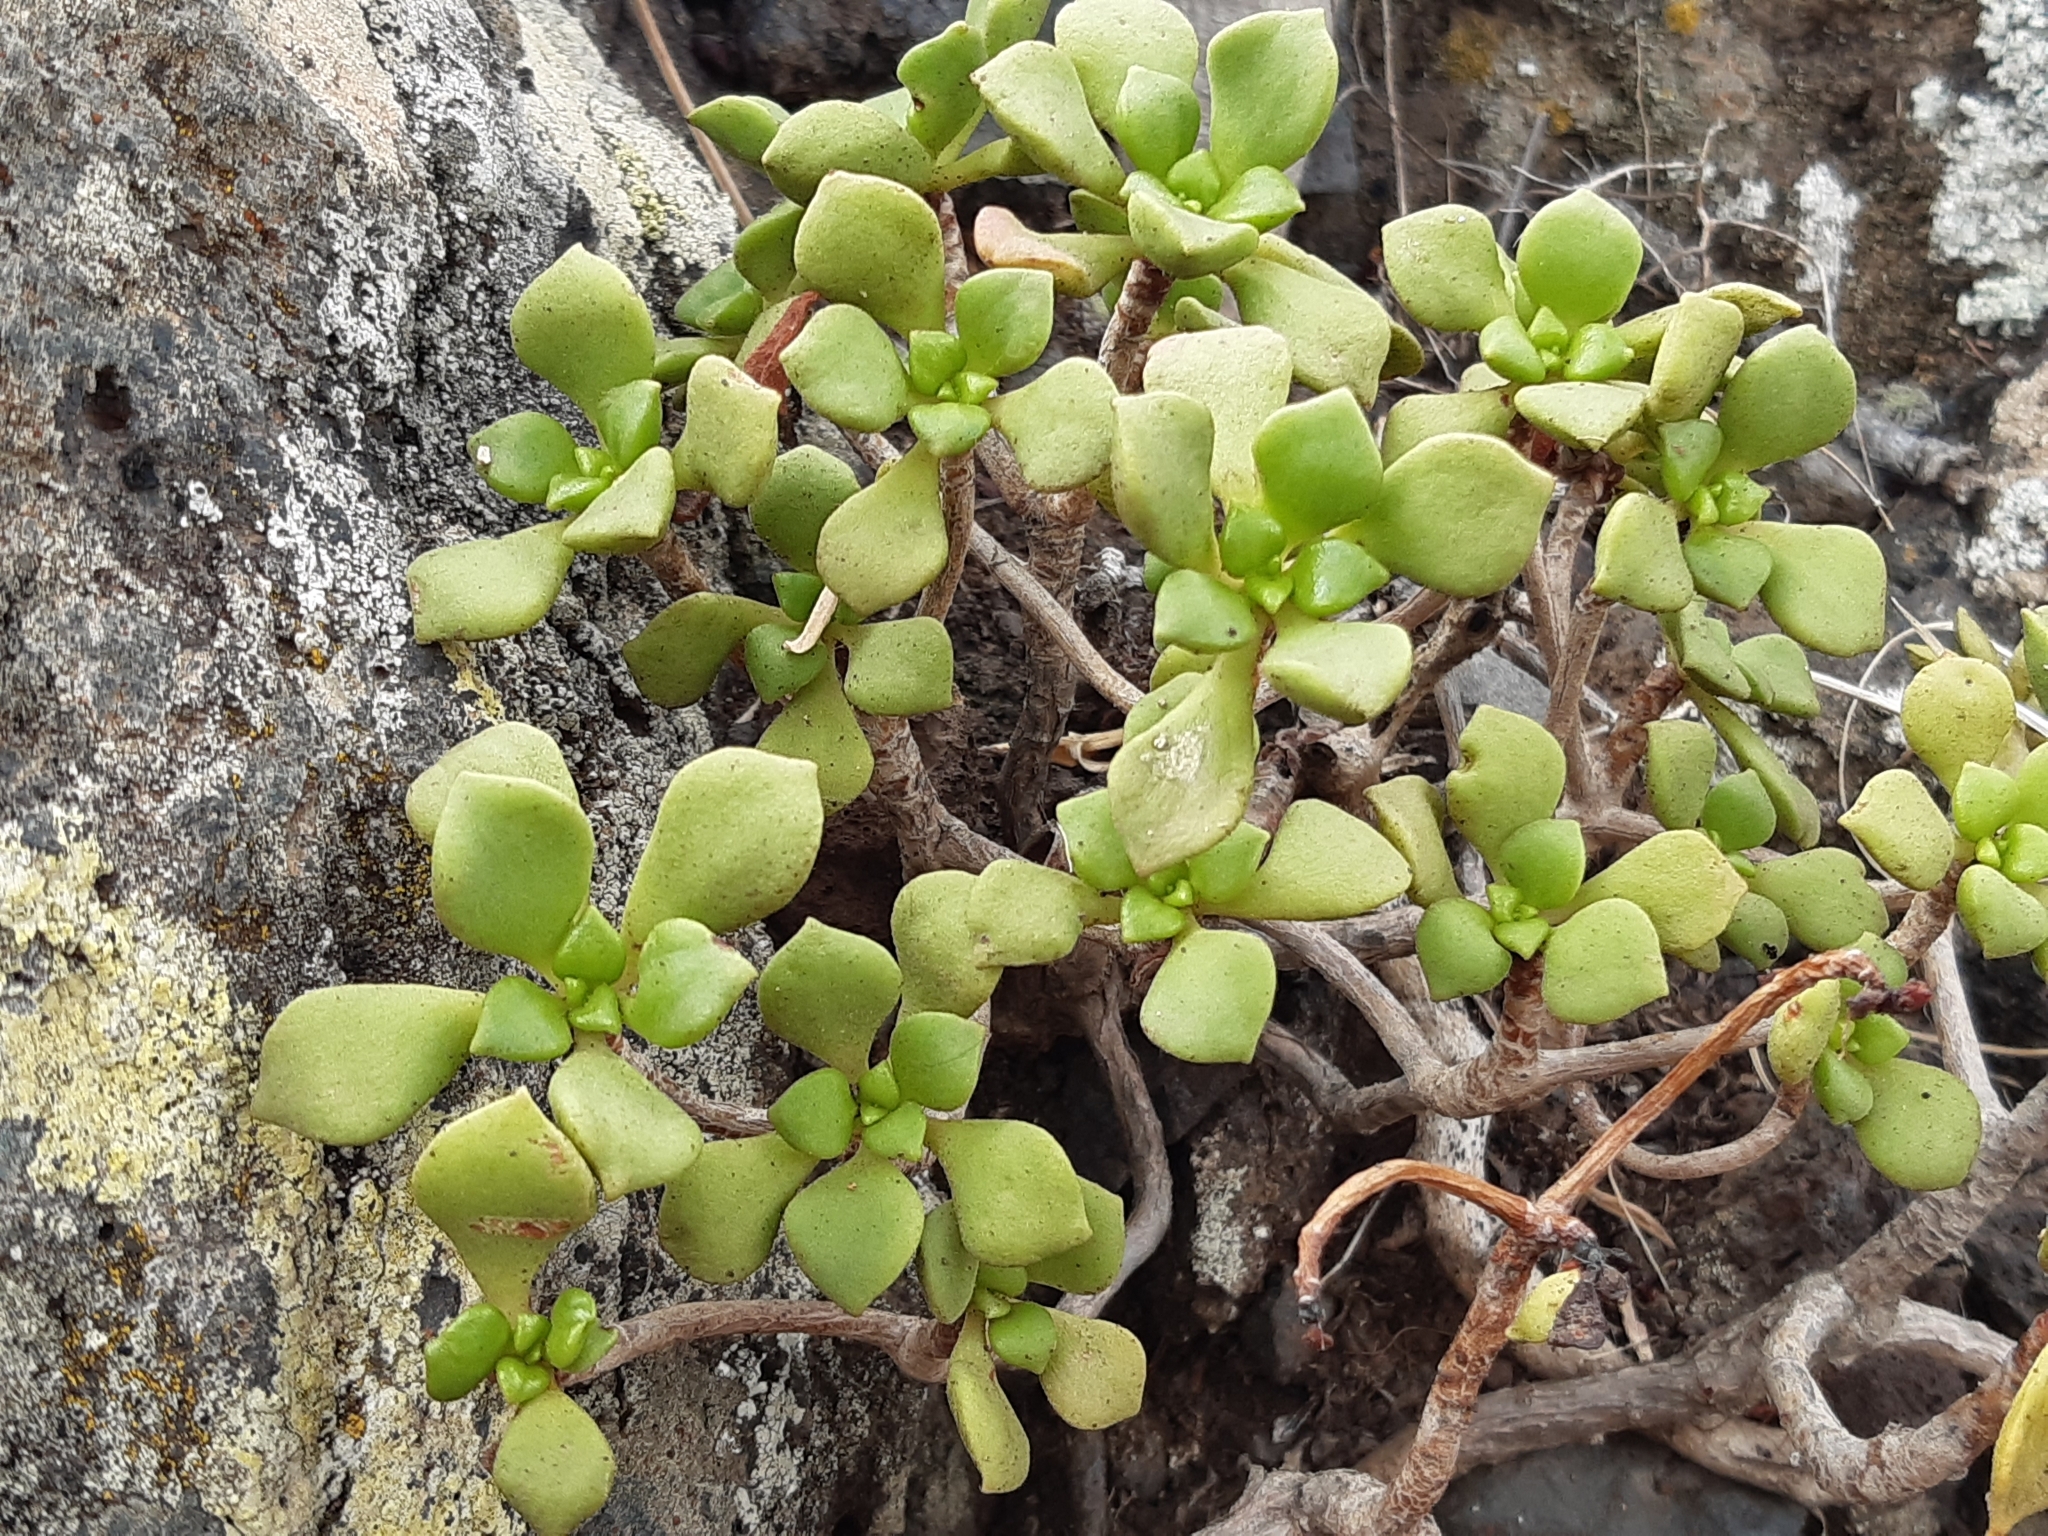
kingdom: Plantae
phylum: Tracheophyta
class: Magnoliopsida
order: Saxifragales
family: Crassulaceae
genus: Aeonium
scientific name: Aeonium lindleyi
